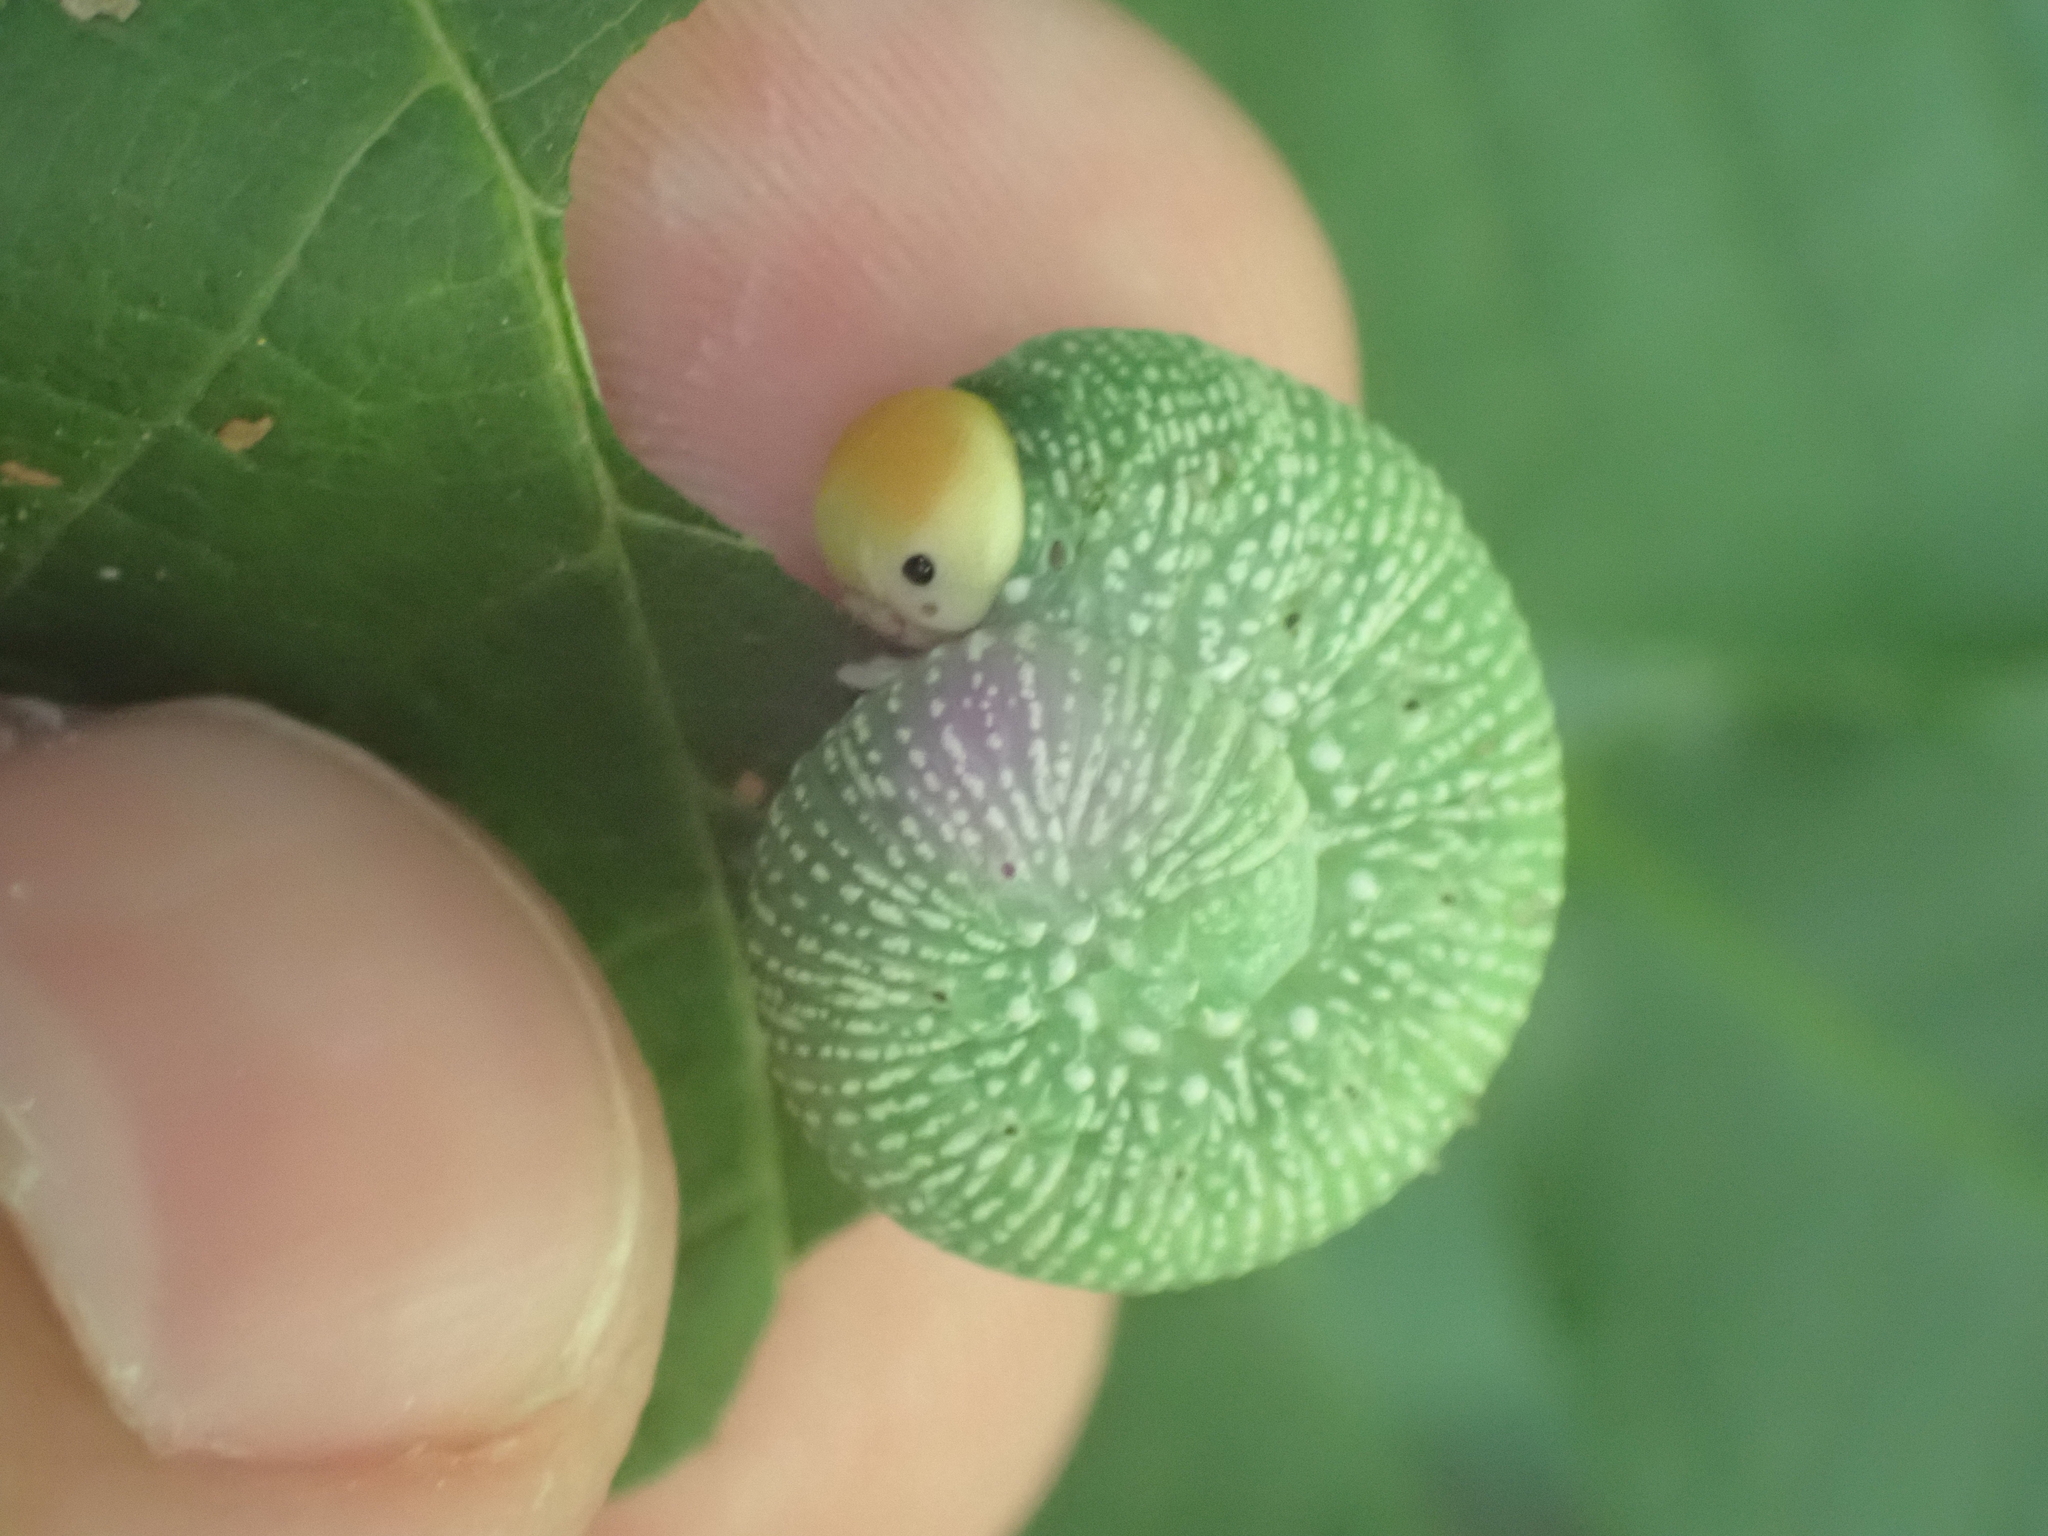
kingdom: Animalia
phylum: Arthropoda
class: Insecta
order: Hymenoptera
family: Cimbicidae
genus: Trichiosoma
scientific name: Trichiosoma
